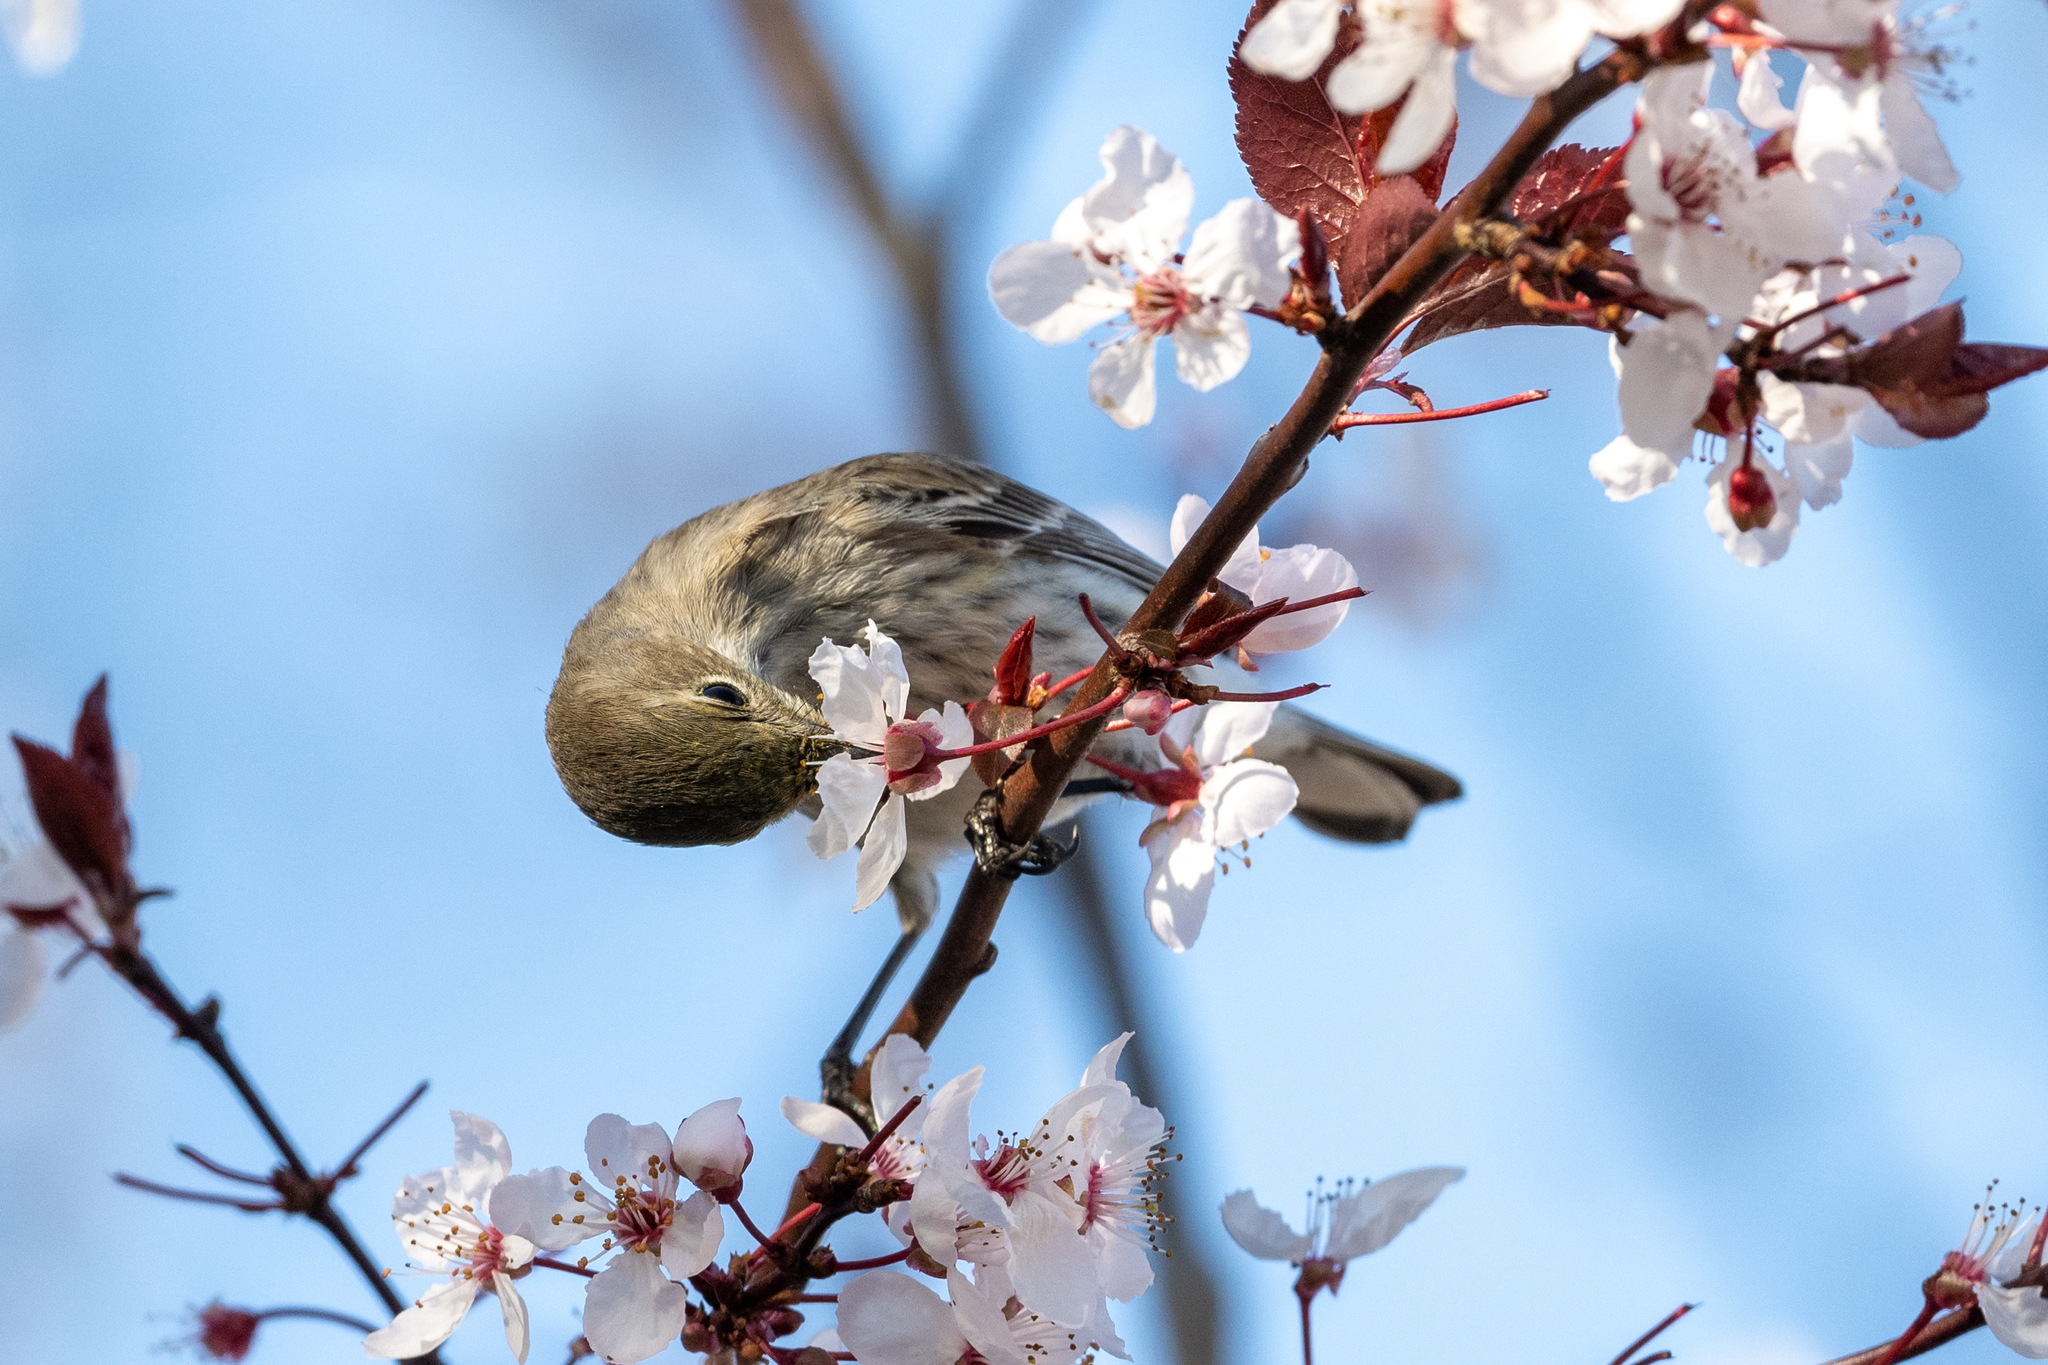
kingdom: Animalia
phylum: Chordata
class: Aves
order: Passeriformes
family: Parulidae
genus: Setophaga
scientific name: Setophaga coronata
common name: Myrtle warbler
